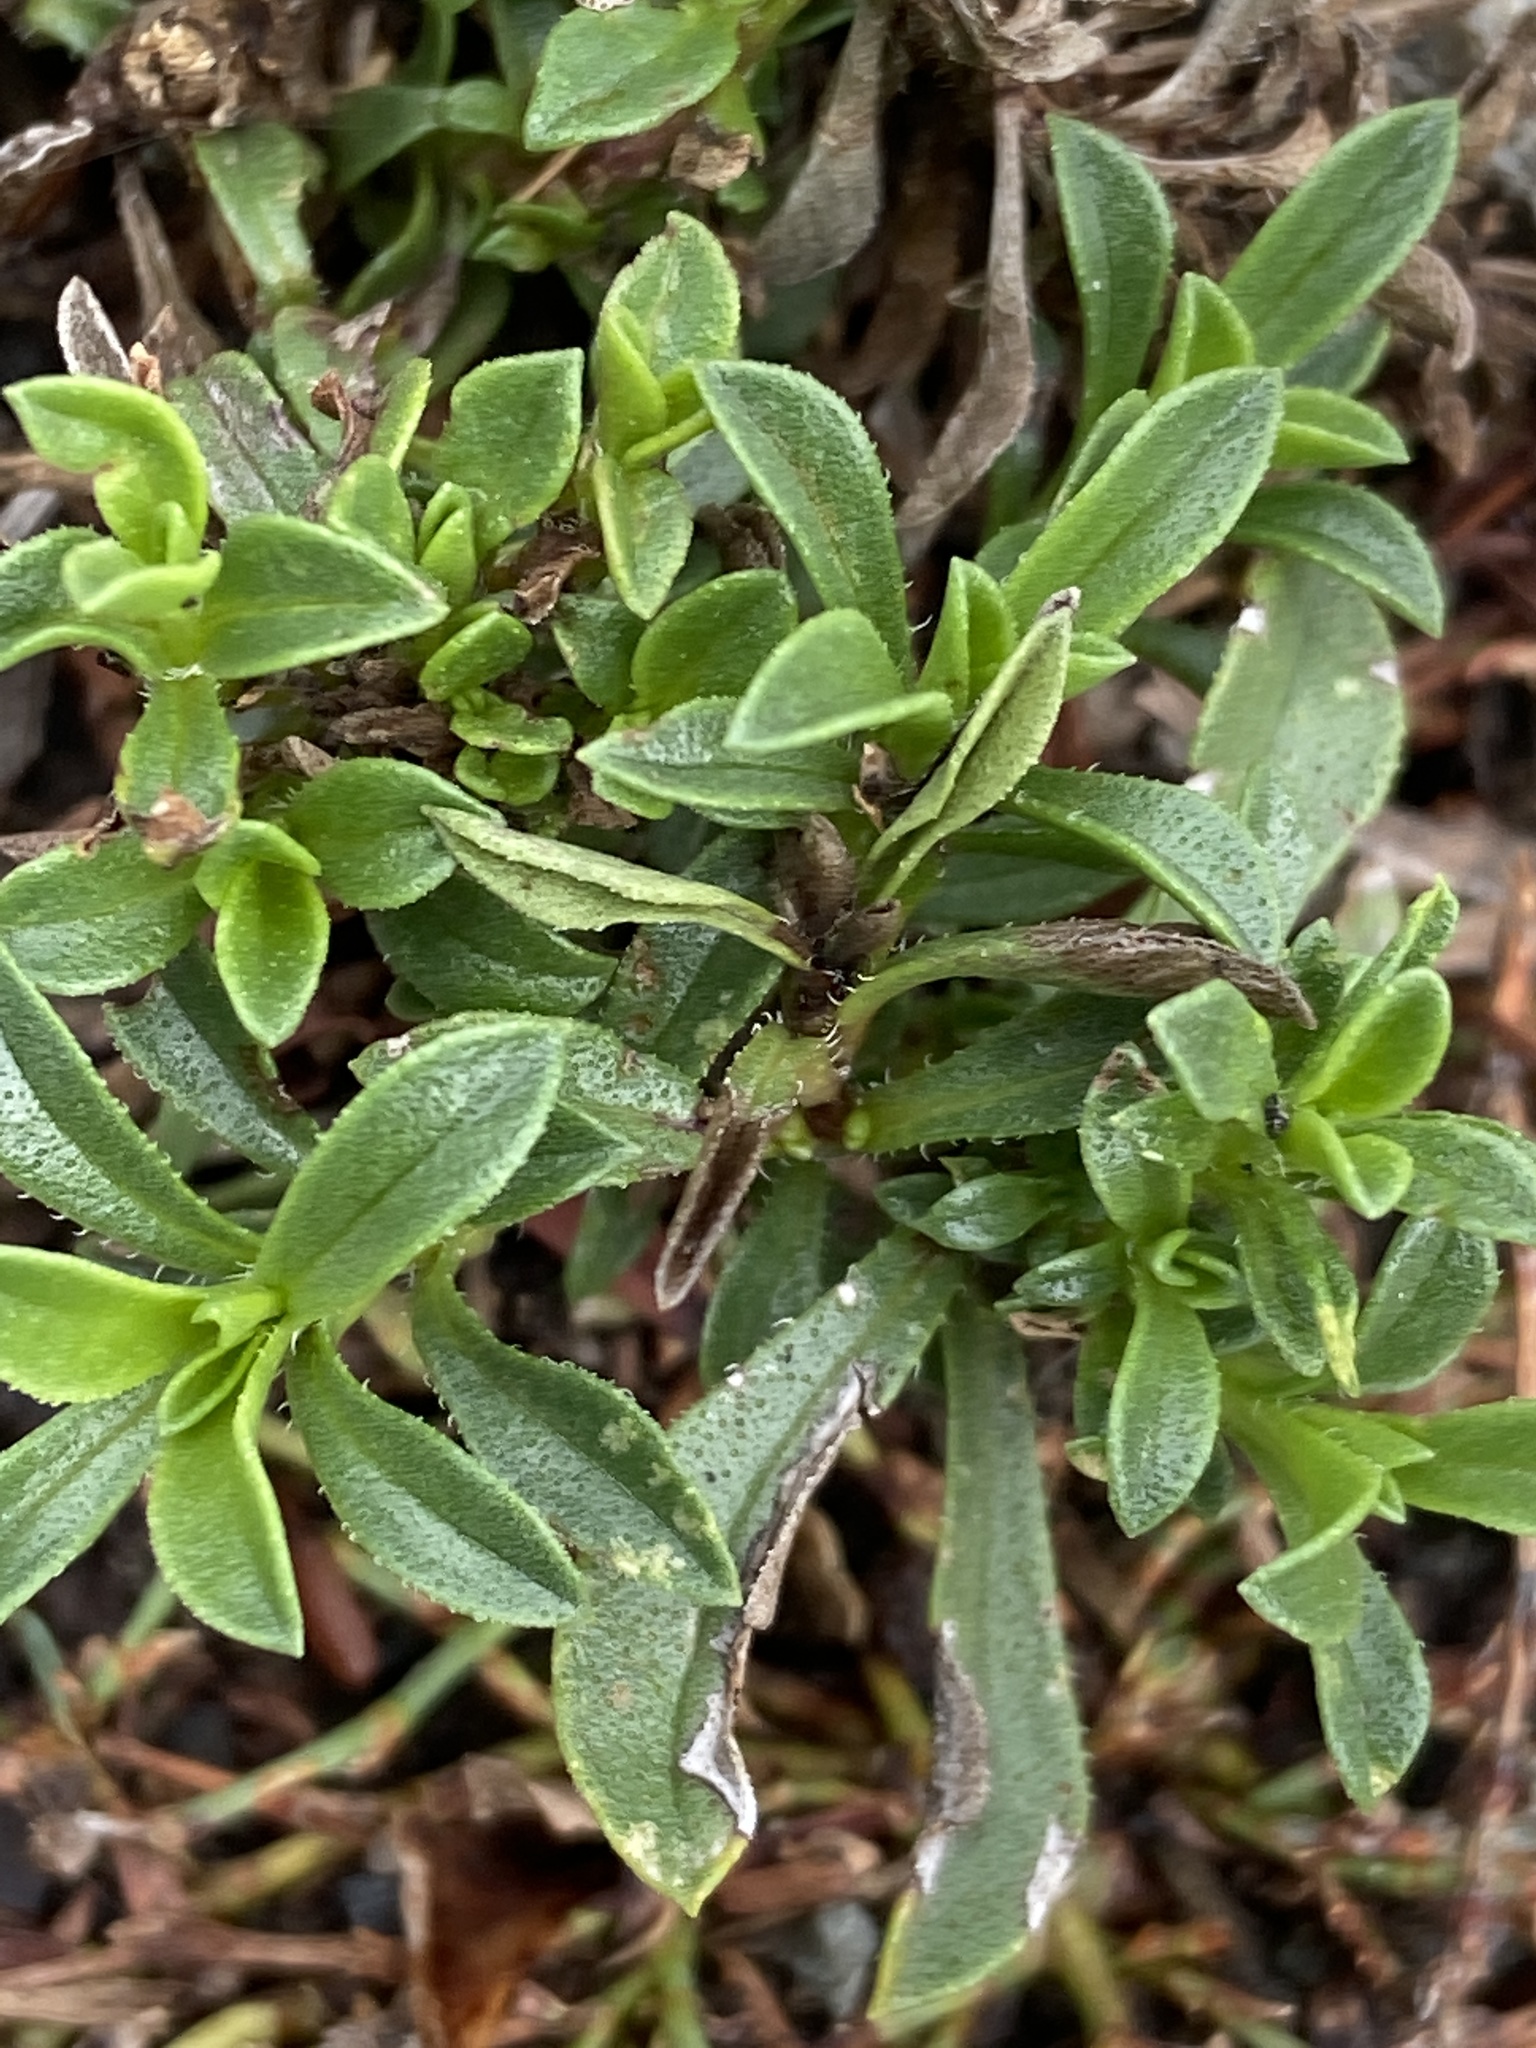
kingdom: Plantae
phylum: Tracheophyta
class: Magnoliopsida
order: Lamiales
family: Lamiaceae
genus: Satureja
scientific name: Satureja montana
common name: Winter savory
